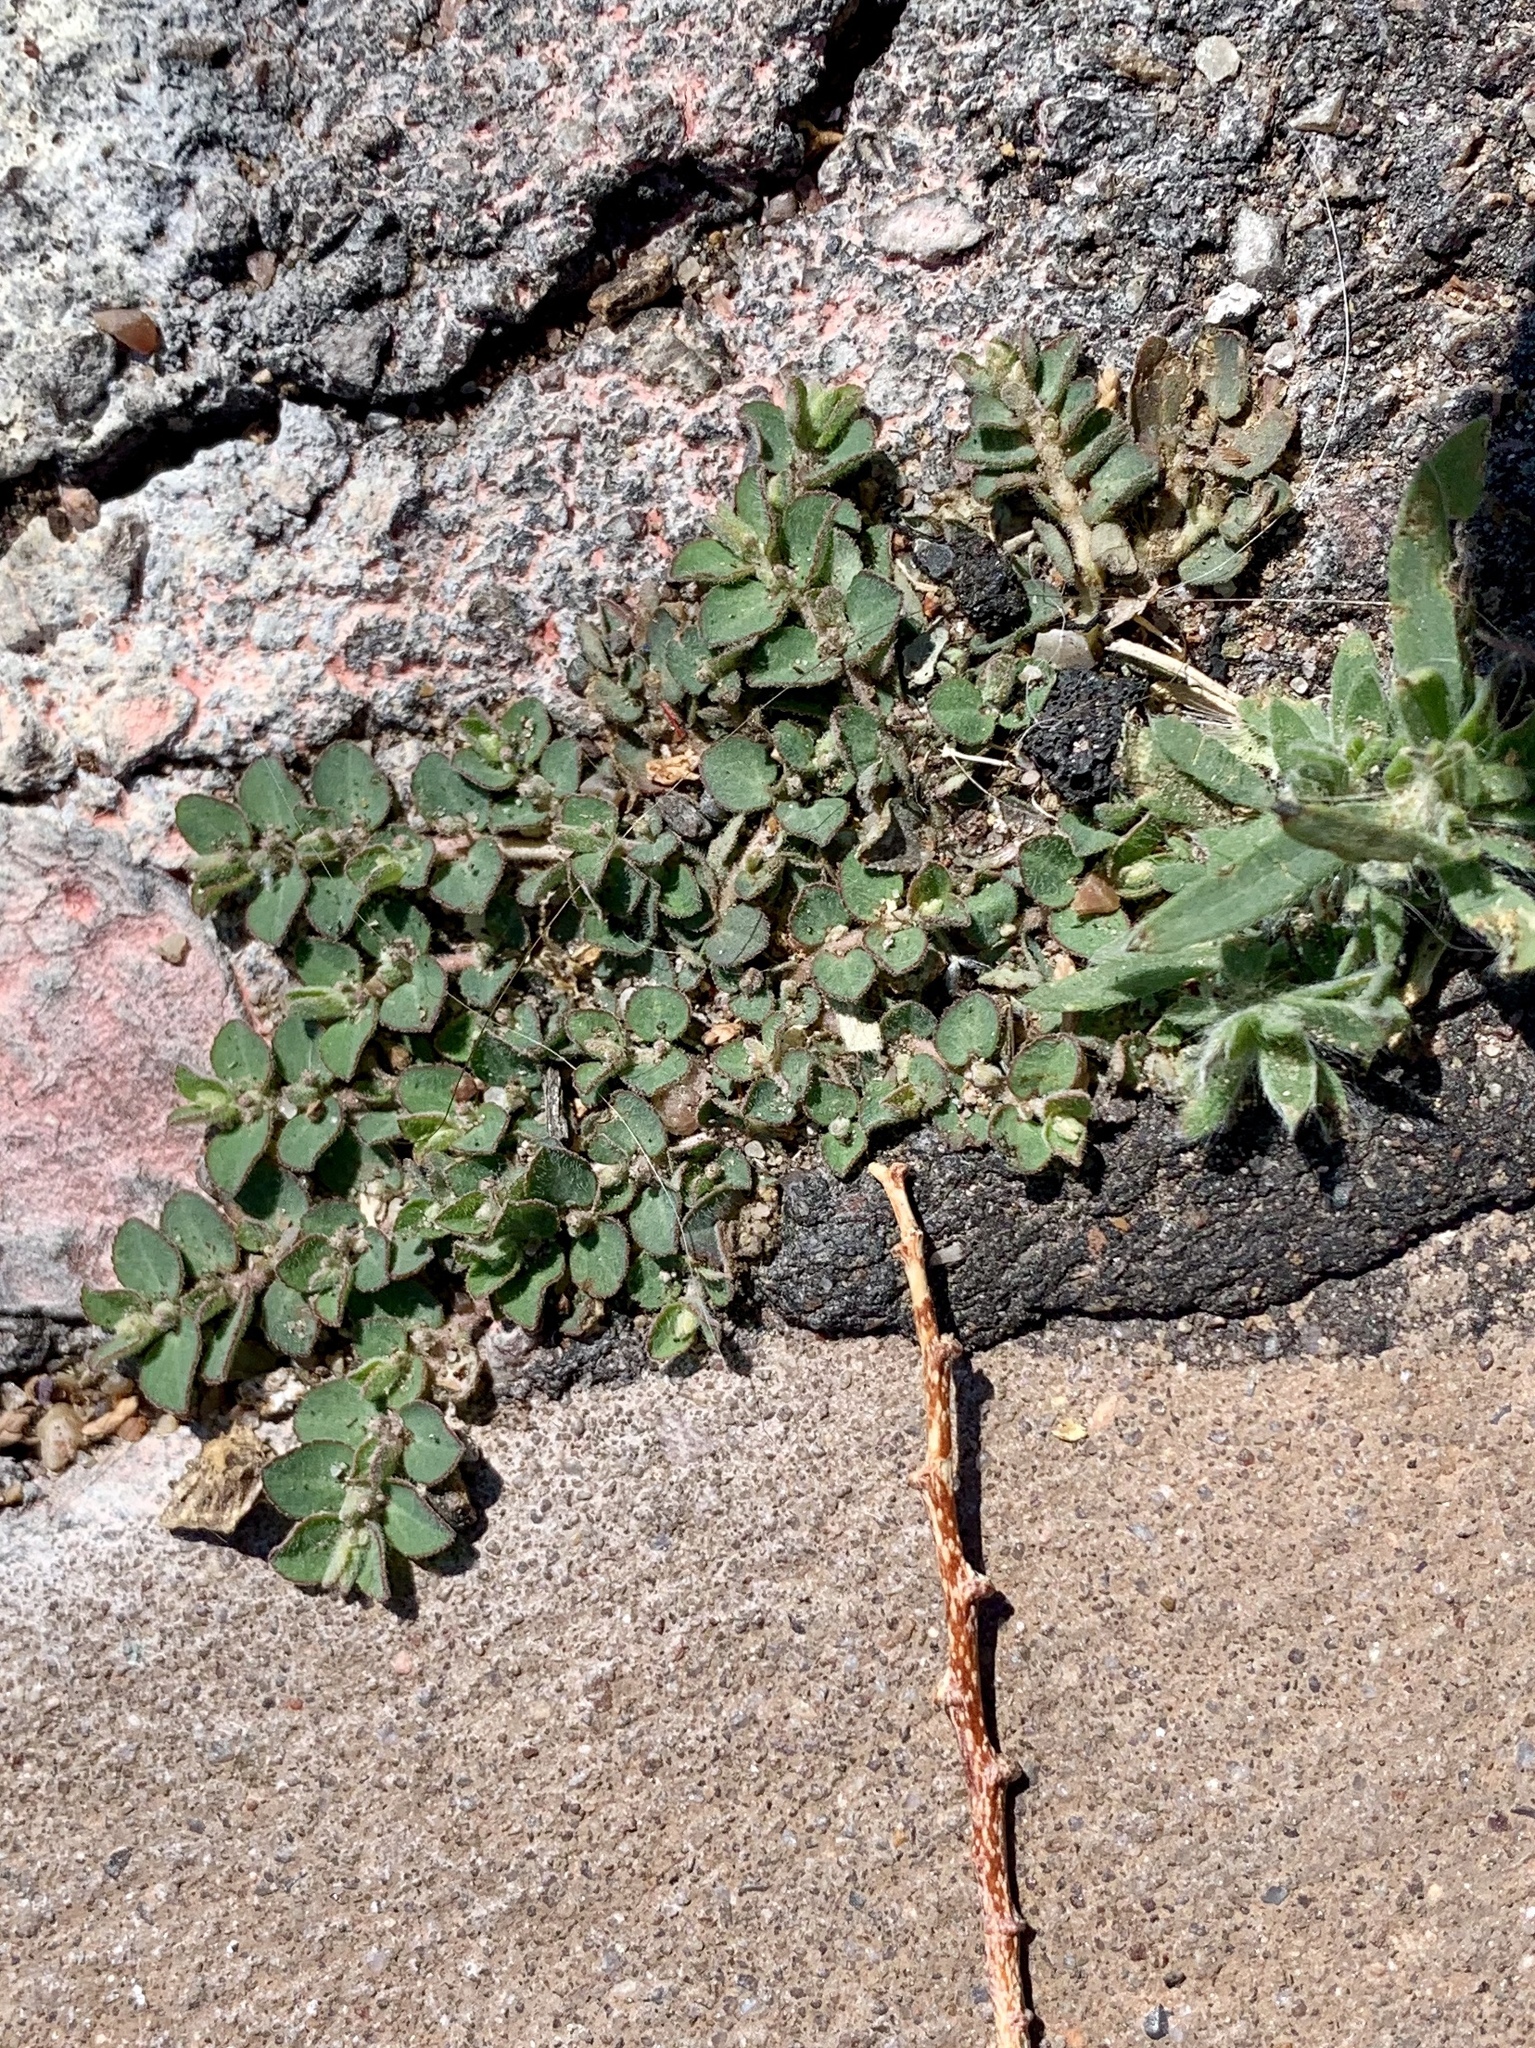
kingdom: Plantae
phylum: Tracheophyta
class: Magnoliopsida
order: Malpighiales
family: Euphorbiaceae
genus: Euphorbia
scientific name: Euphorbia prostrata
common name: Prostrate sandmat
